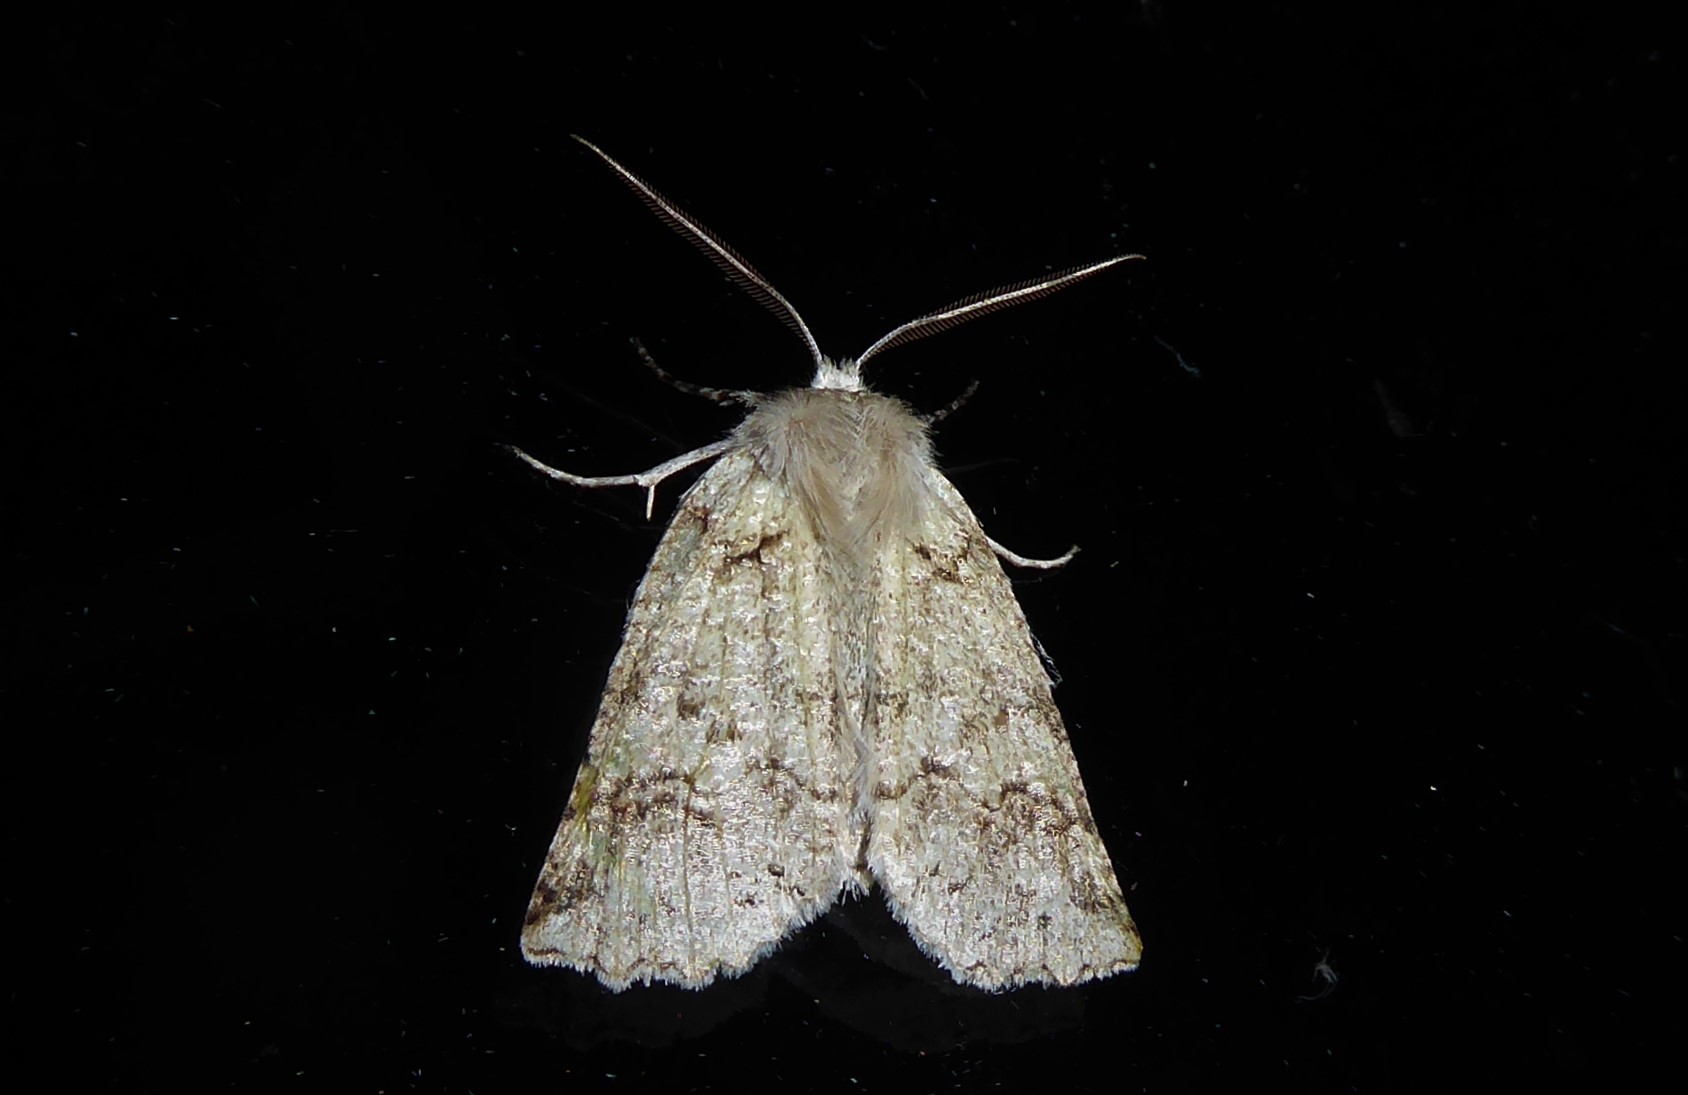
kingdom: Animalia
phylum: Arthropoda
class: Insecta
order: Lepidoptera
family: Geometridae
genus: Declana
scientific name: Declana floccosa
